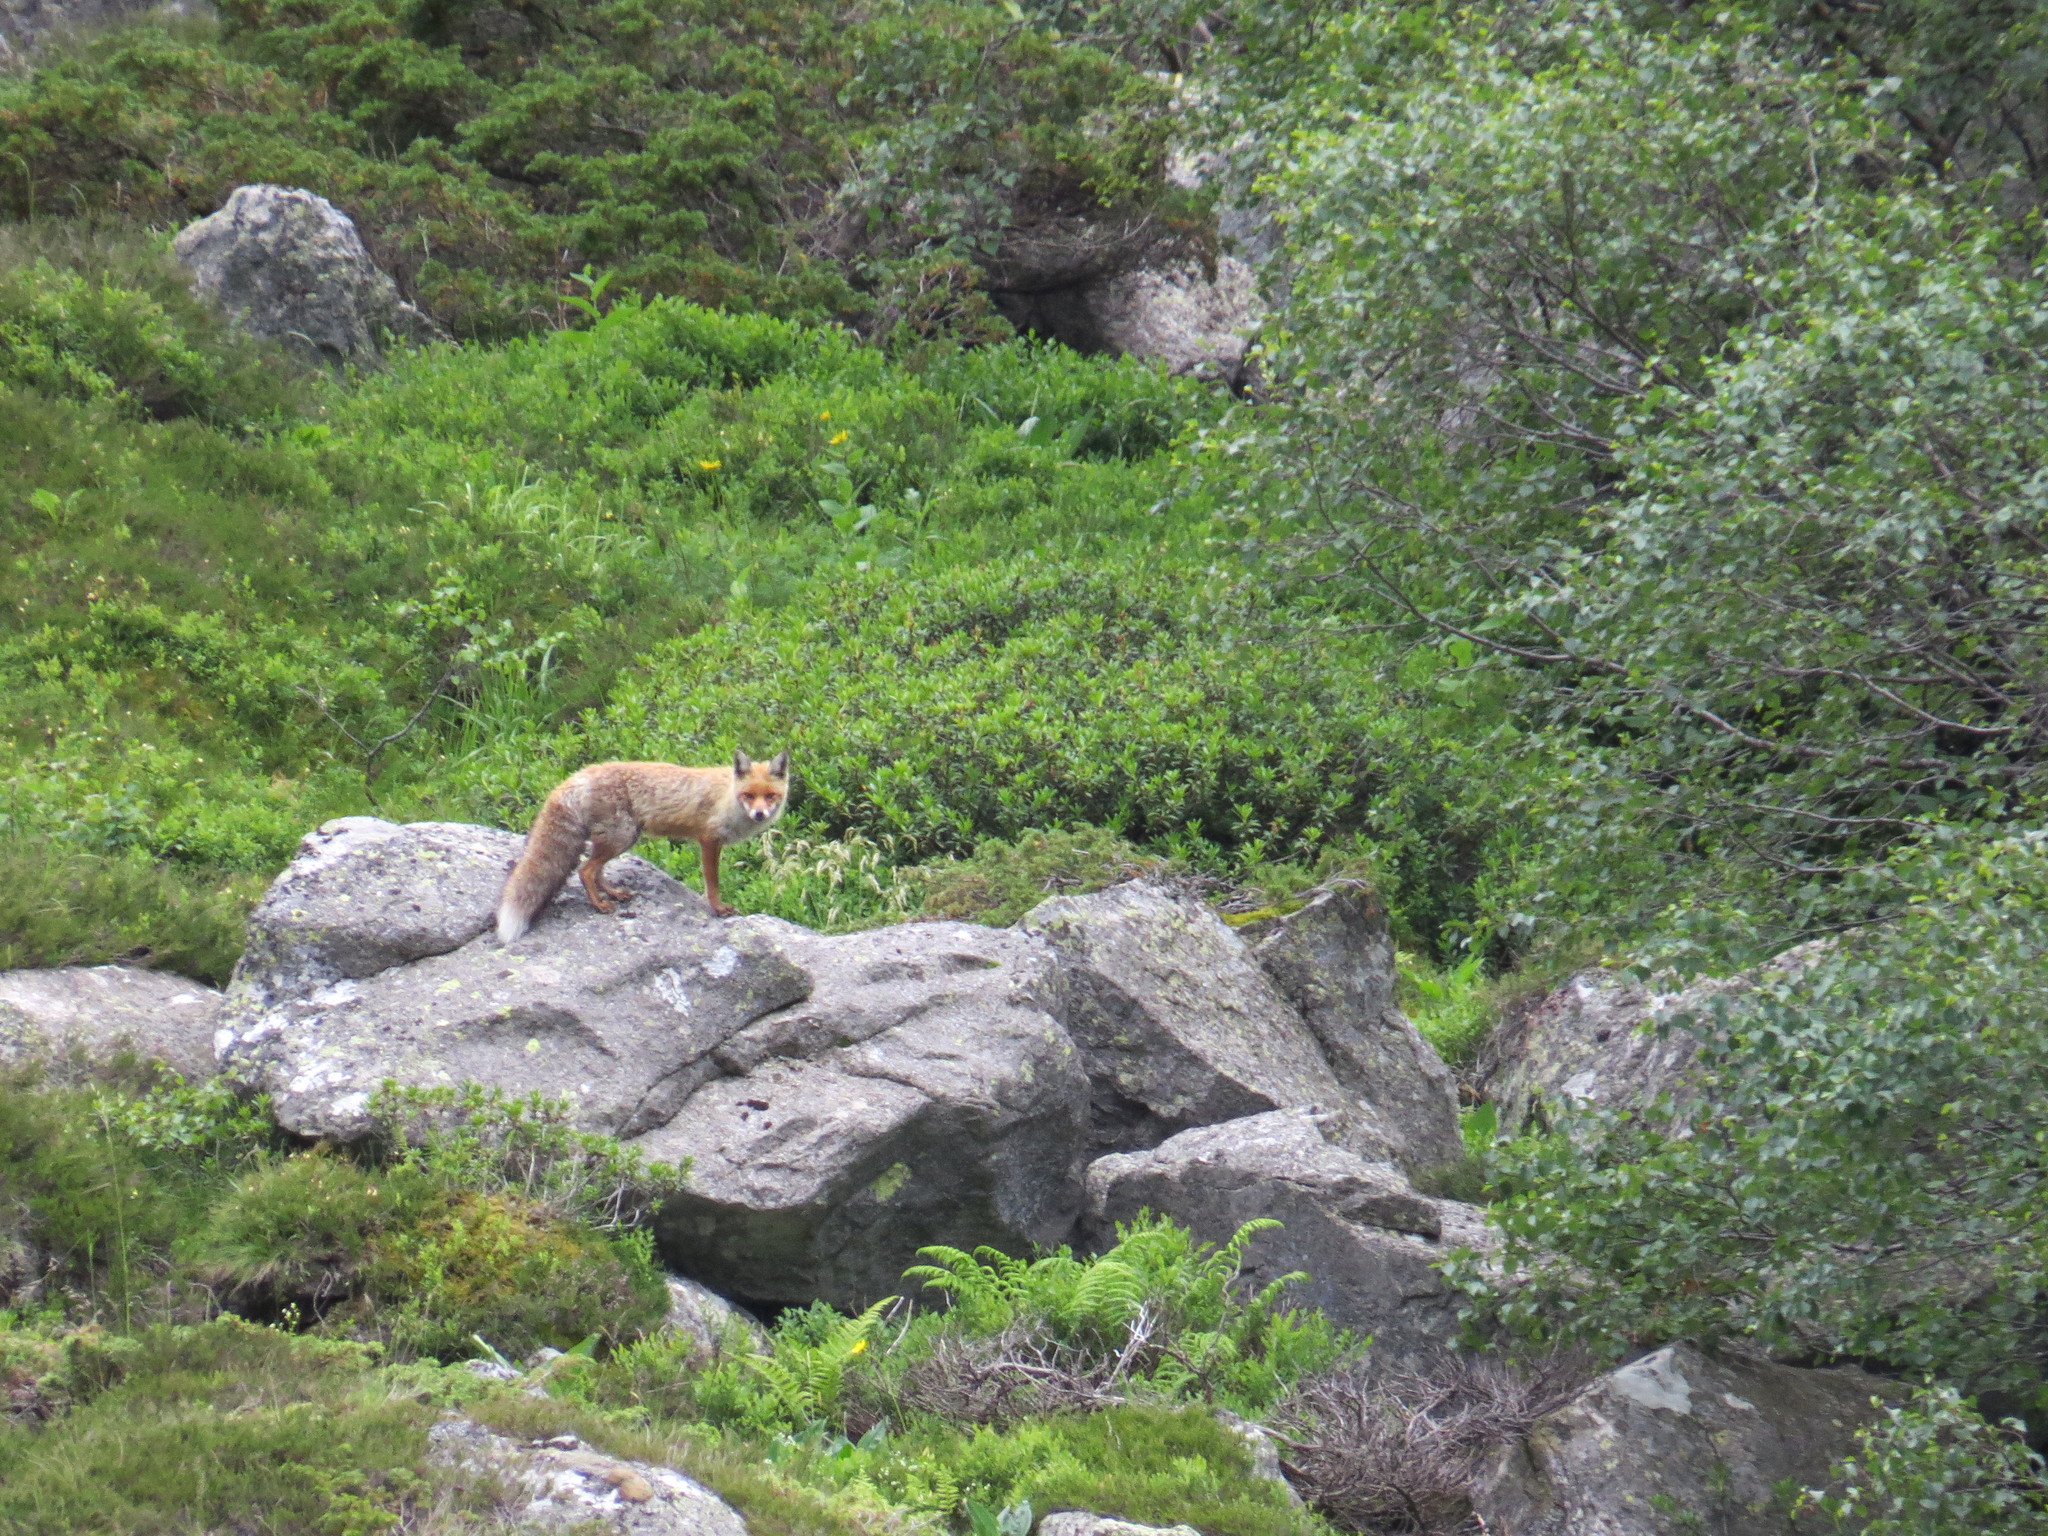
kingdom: Animalia
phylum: Chordata
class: Mammalia
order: Carnivora
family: Canidae
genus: Vulpes
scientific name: Vulpes vulpes
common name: Red fox
